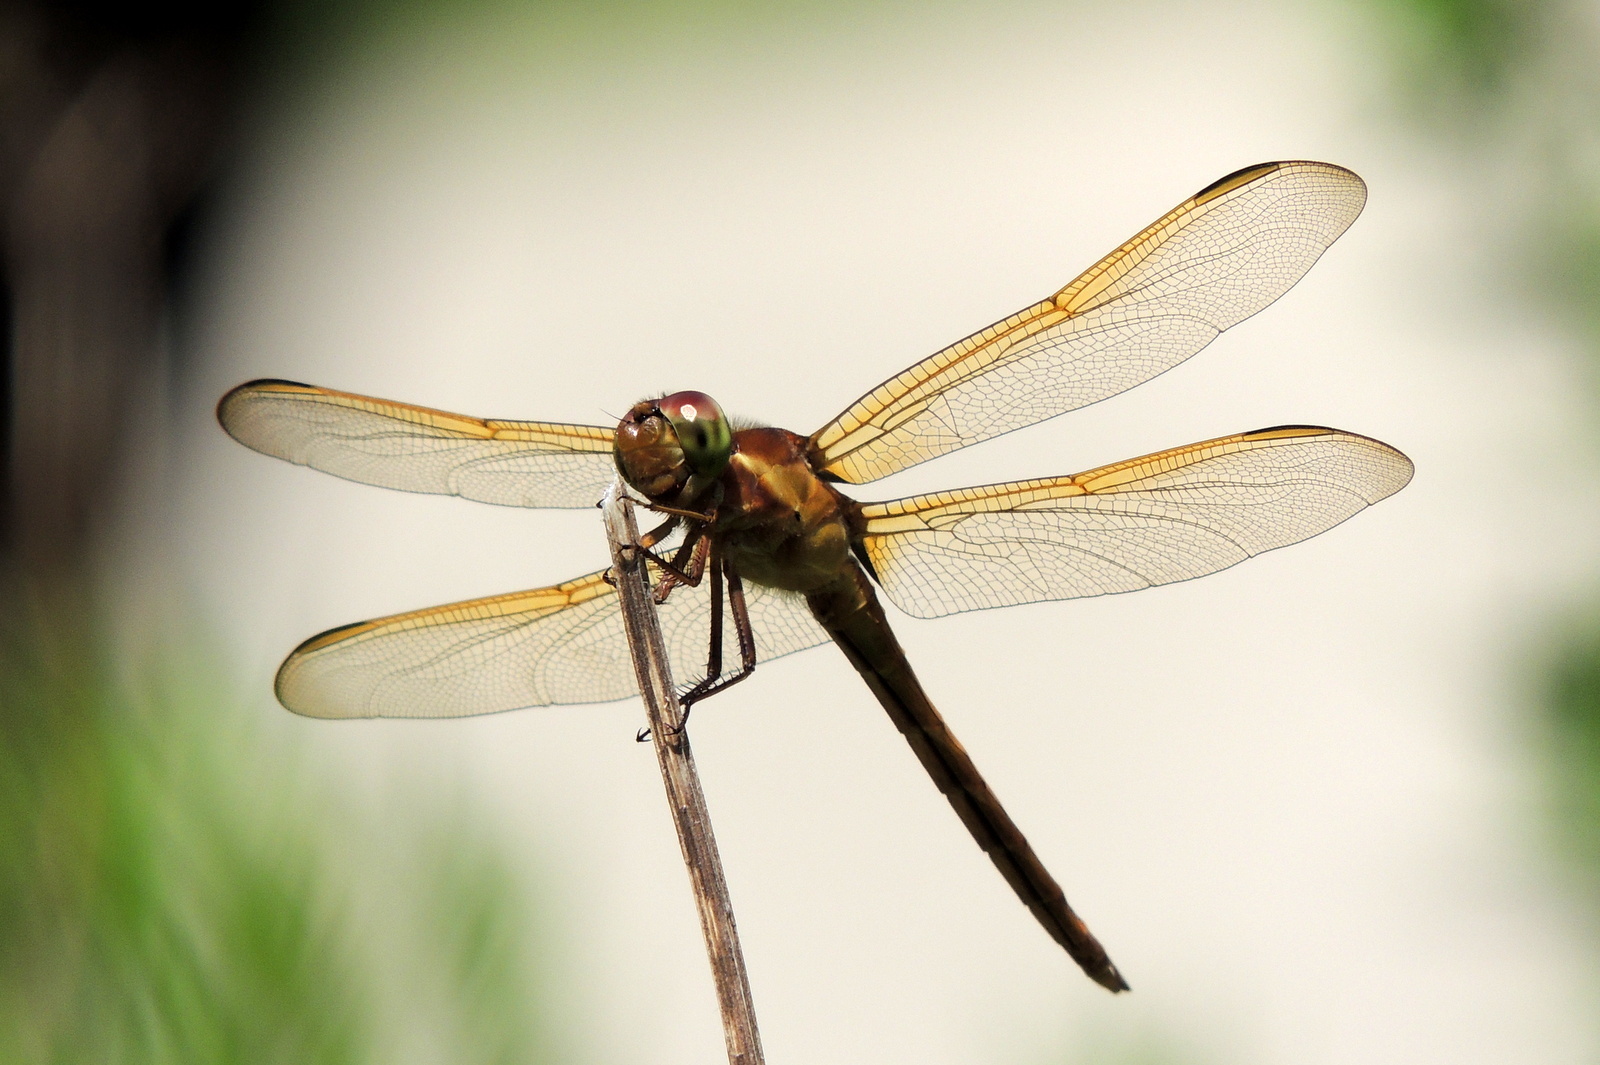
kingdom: Animalia
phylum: Arthropoda
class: Insecta
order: Odonata
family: Libellulidae
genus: Libellula
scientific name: Libellula needhami
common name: Needham's skimmer
